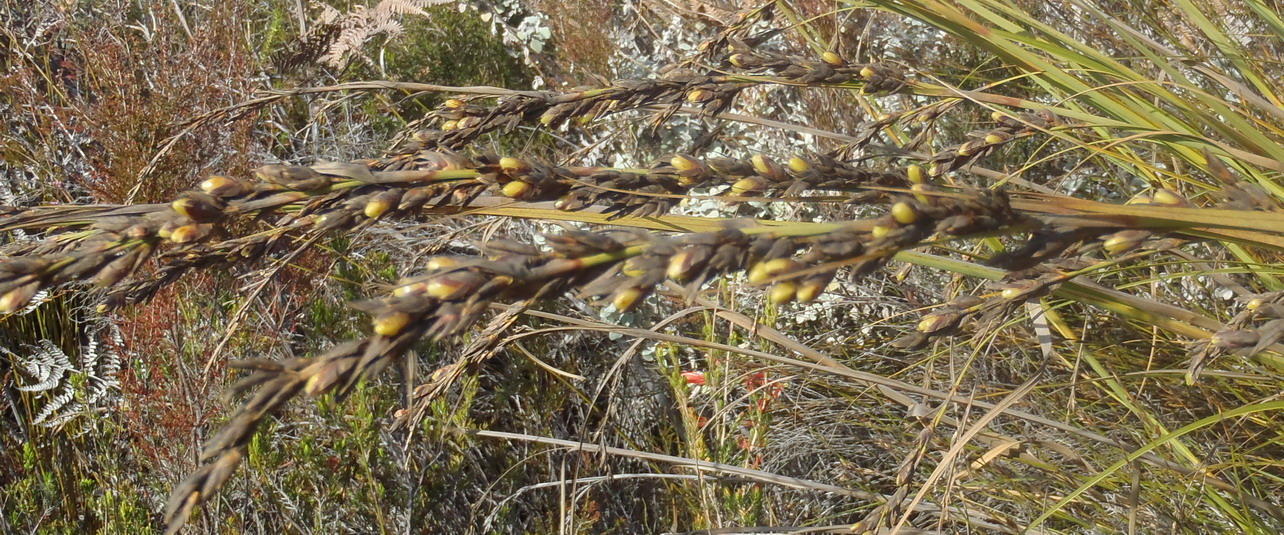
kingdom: Plantae
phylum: Tracheophyta
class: Liliopsida
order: Poales
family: Cyperaceae
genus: Tetraria
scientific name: Tetraria involucrata
